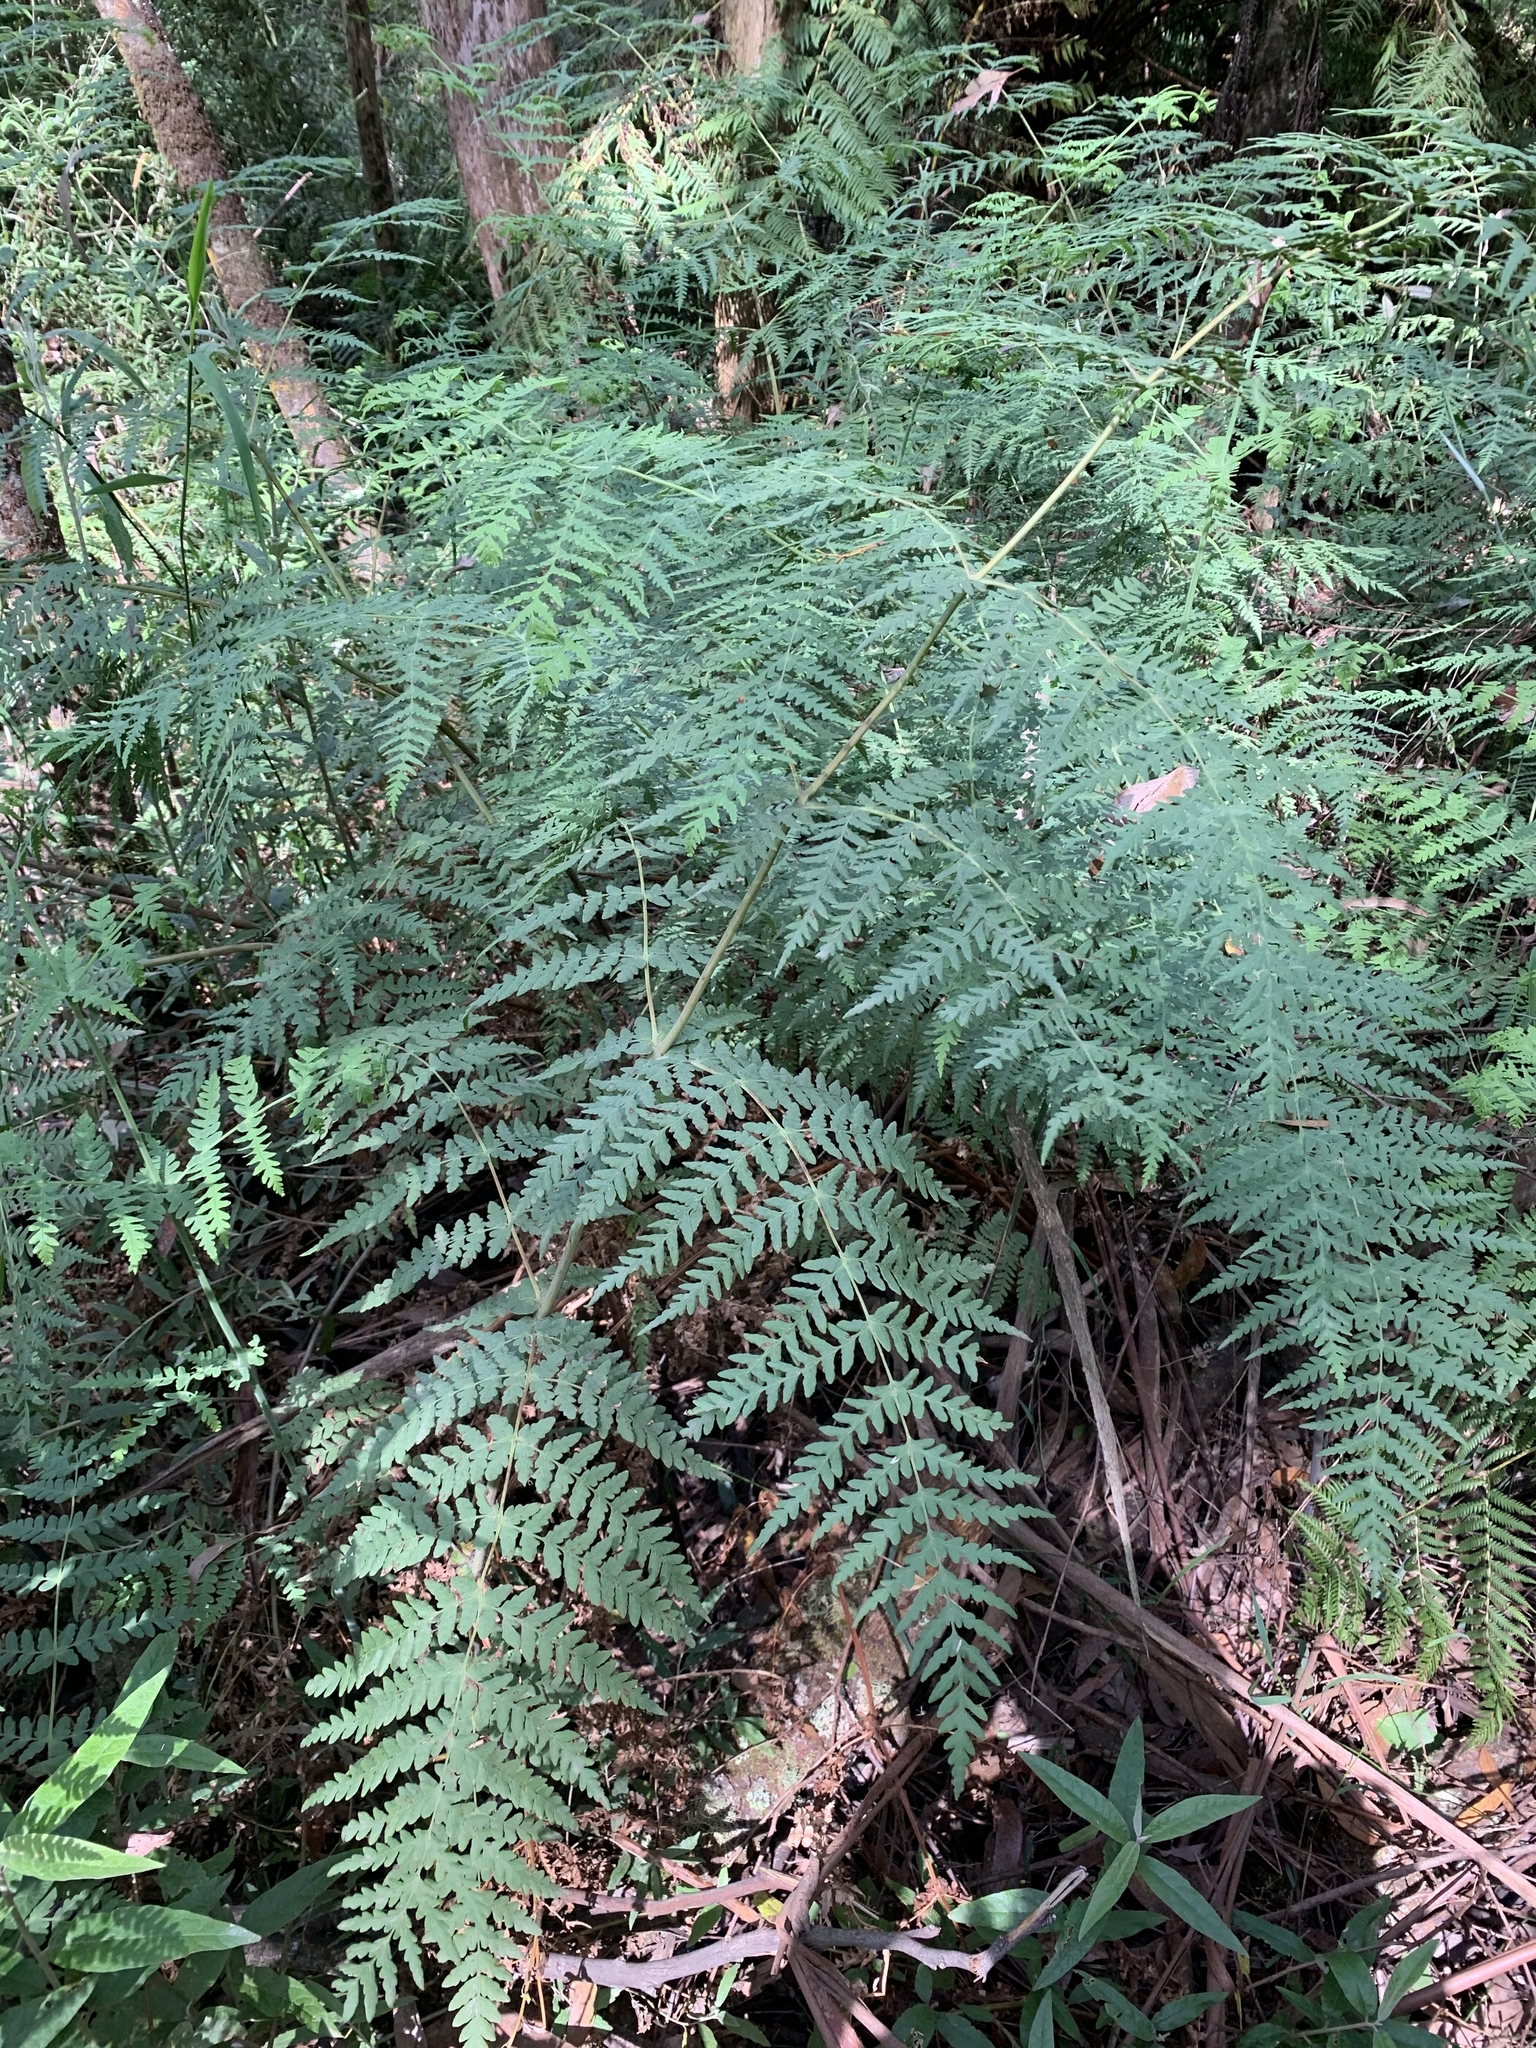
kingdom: Plantae
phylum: Tracheophyta
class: Polypodiopsida
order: Polypodiales
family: Dennstaedtiaceae
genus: Histiopteris
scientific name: Histiopteris incisa
